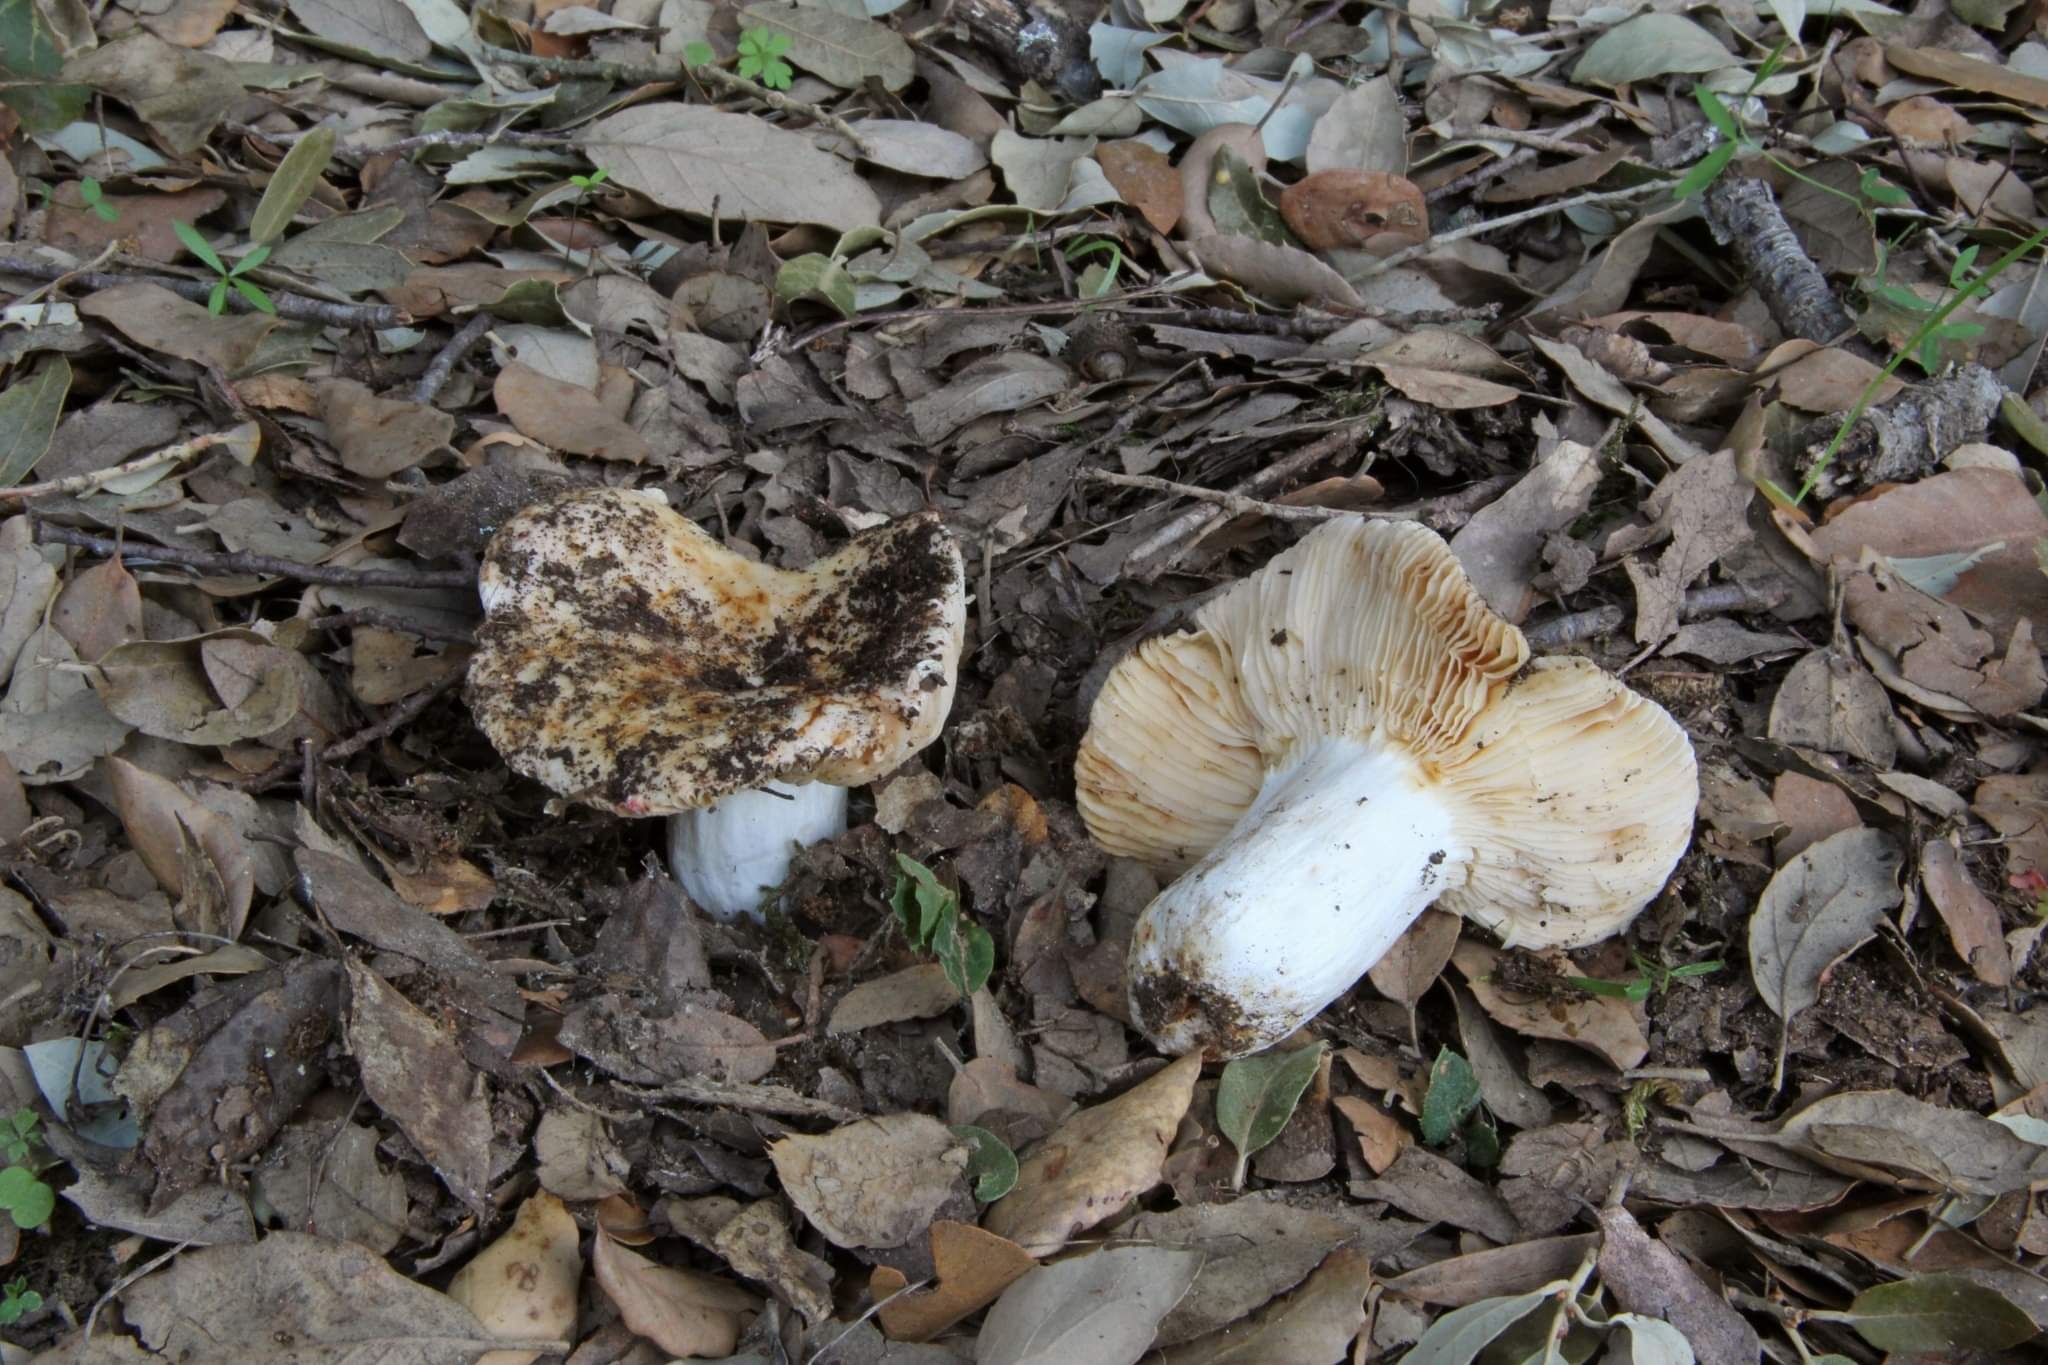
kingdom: Fungi
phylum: Basidiomycota
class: Agaricomycetes
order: Russulales
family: Russulaceae
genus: Russula
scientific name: Russula maculata
